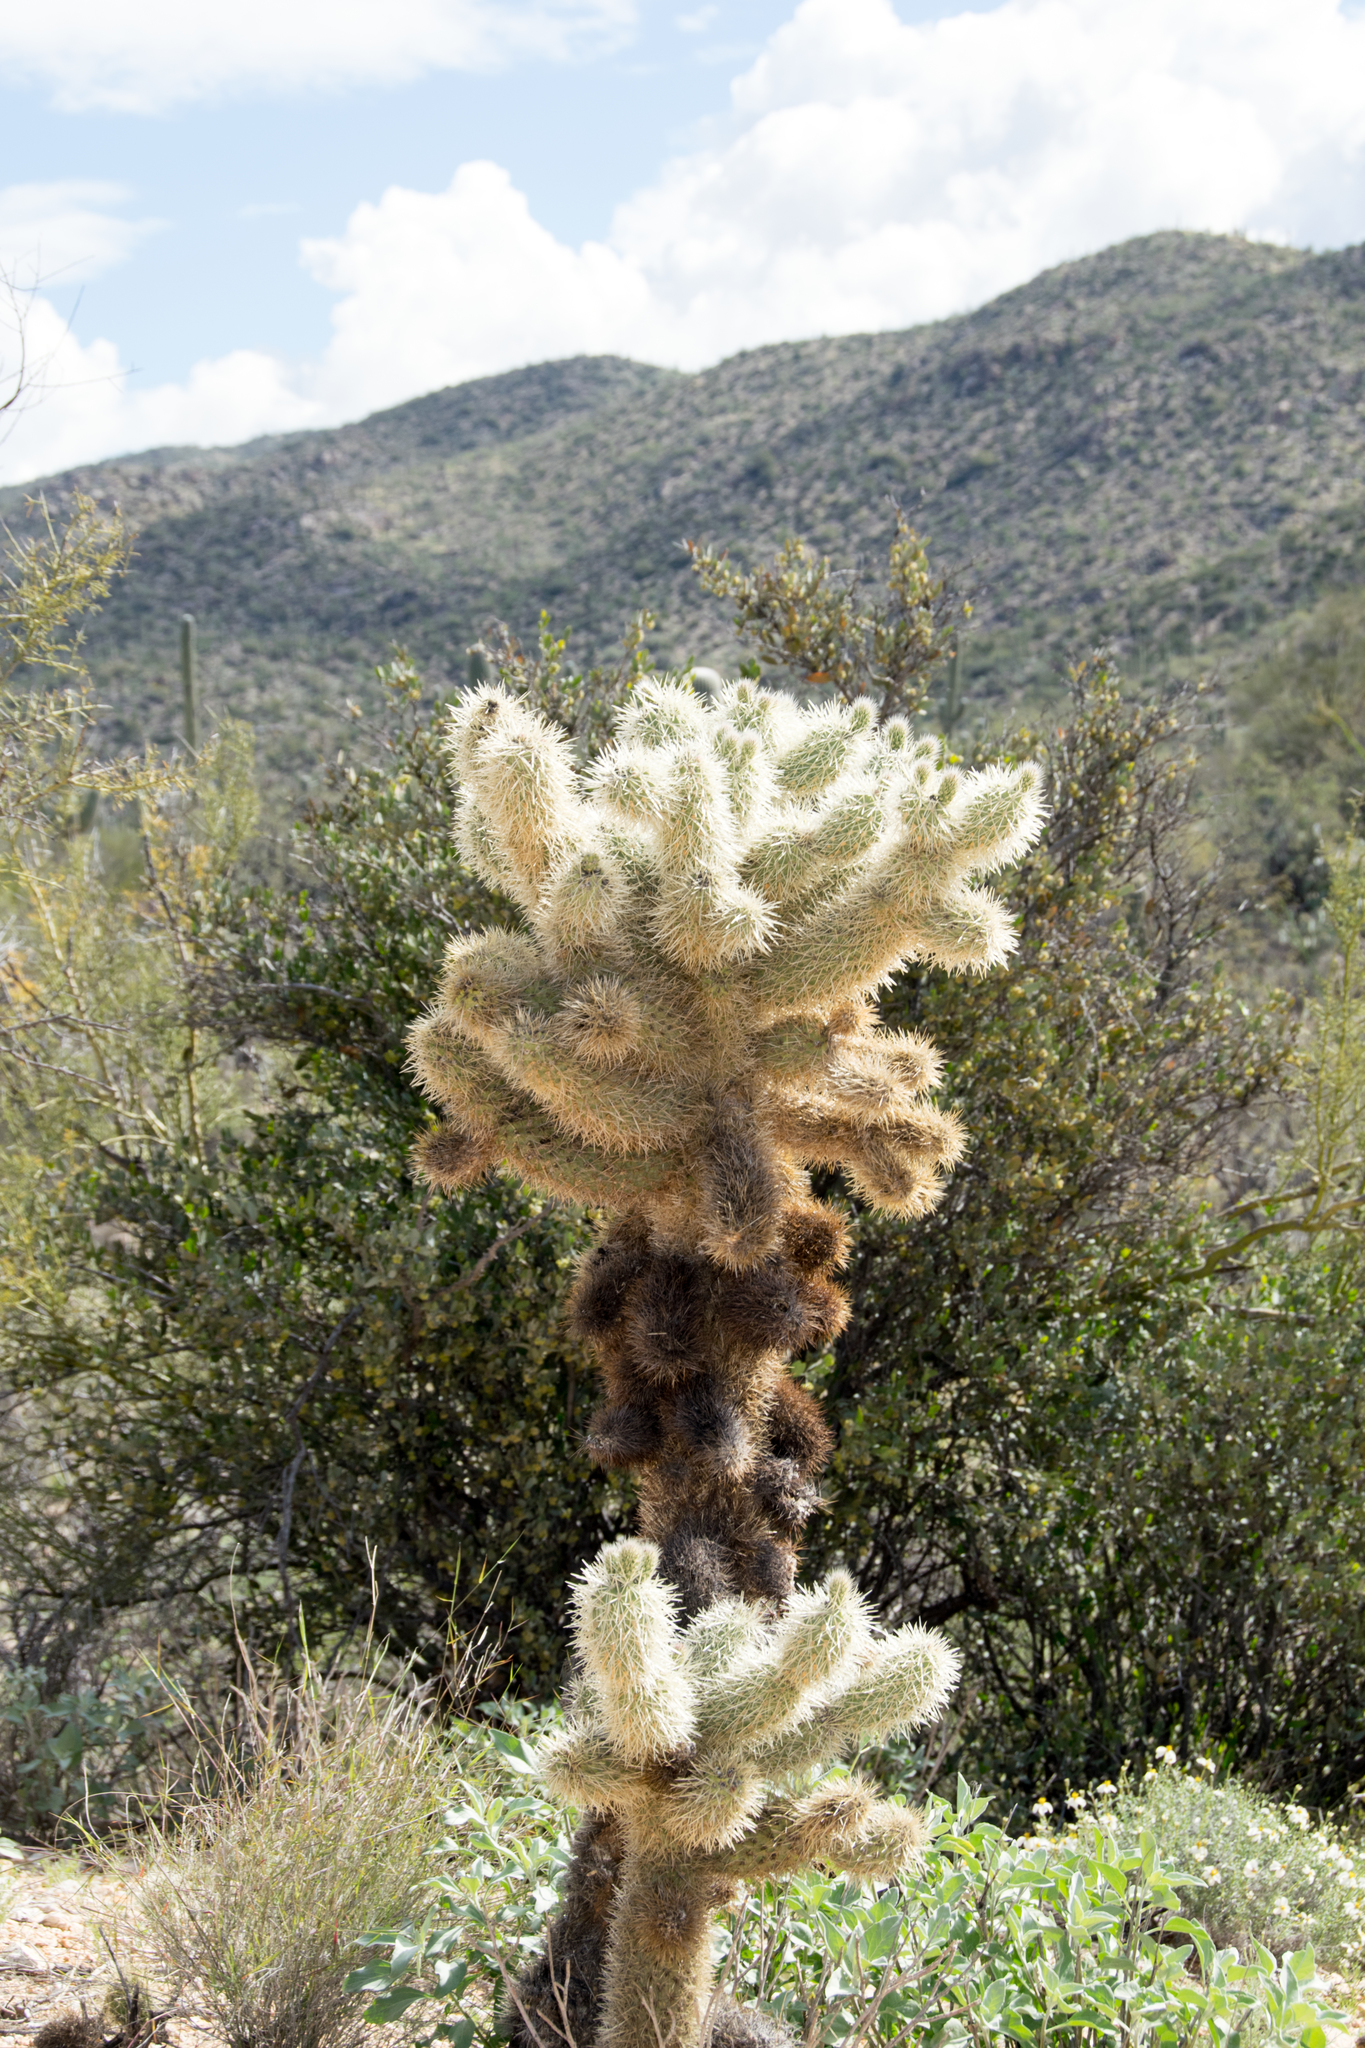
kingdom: Plantae
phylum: Tracheophyta
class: Magnoliopsida
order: Caryophyllales
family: Cactaceae
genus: Cylindropuntia
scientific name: Cylindropuntia fosbergii
